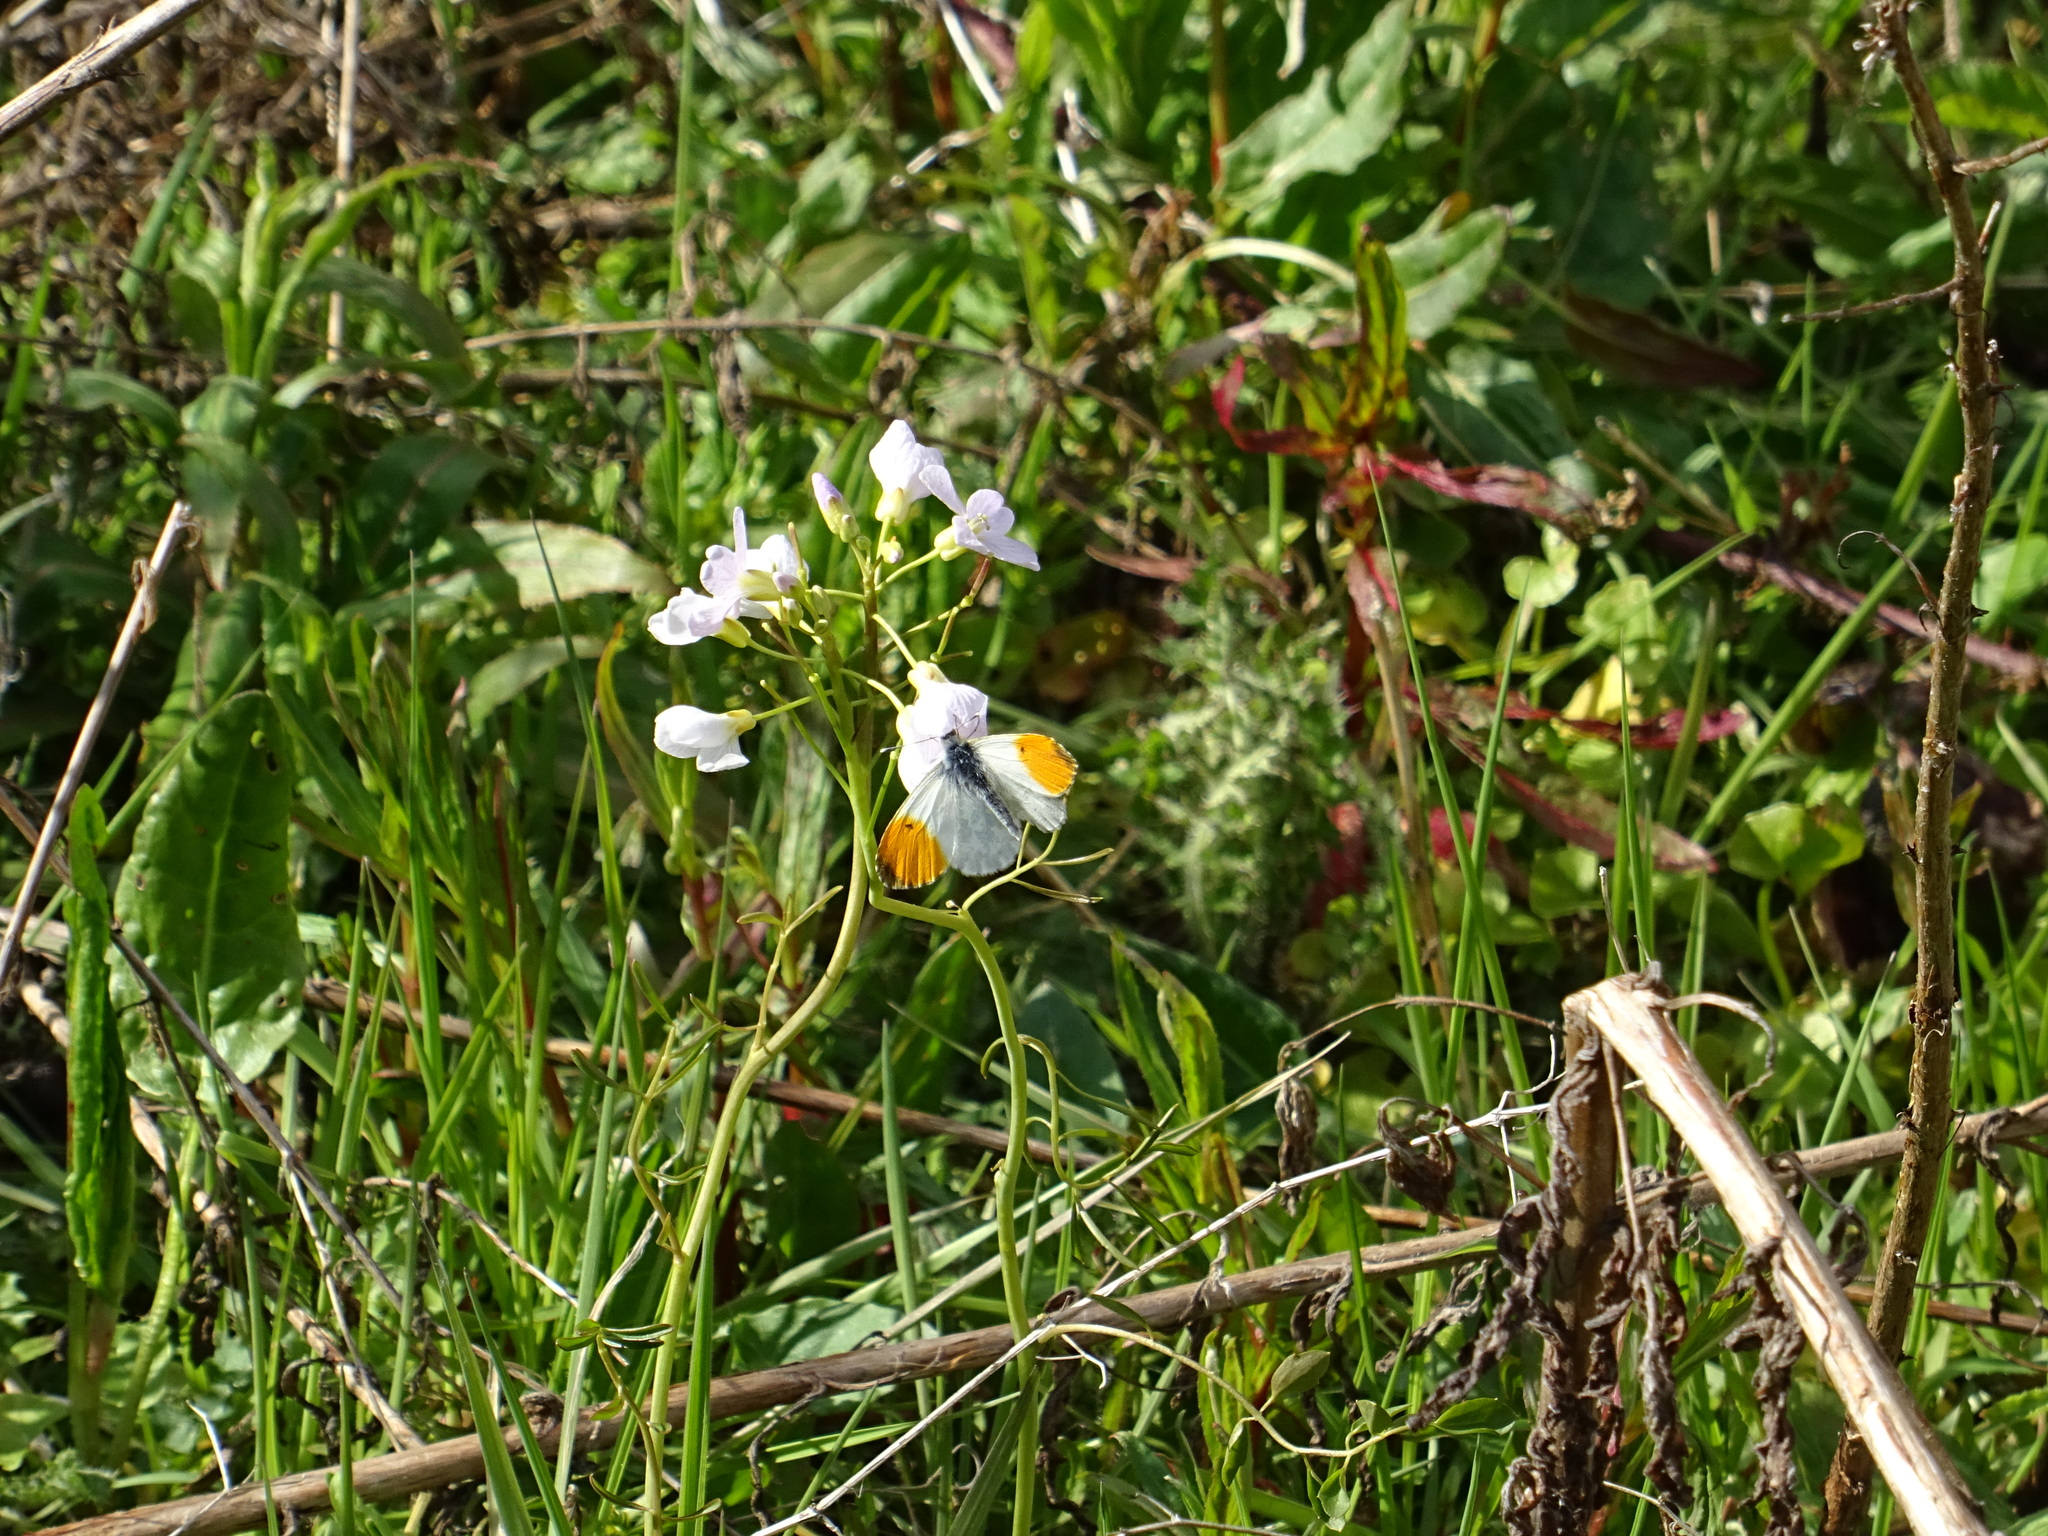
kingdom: Animalia
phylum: Arthropoda
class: Insecta
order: Lepidoptera
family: Pieridae
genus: Anthocharis
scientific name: Anthocharis cardamines
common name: Orange-tip
